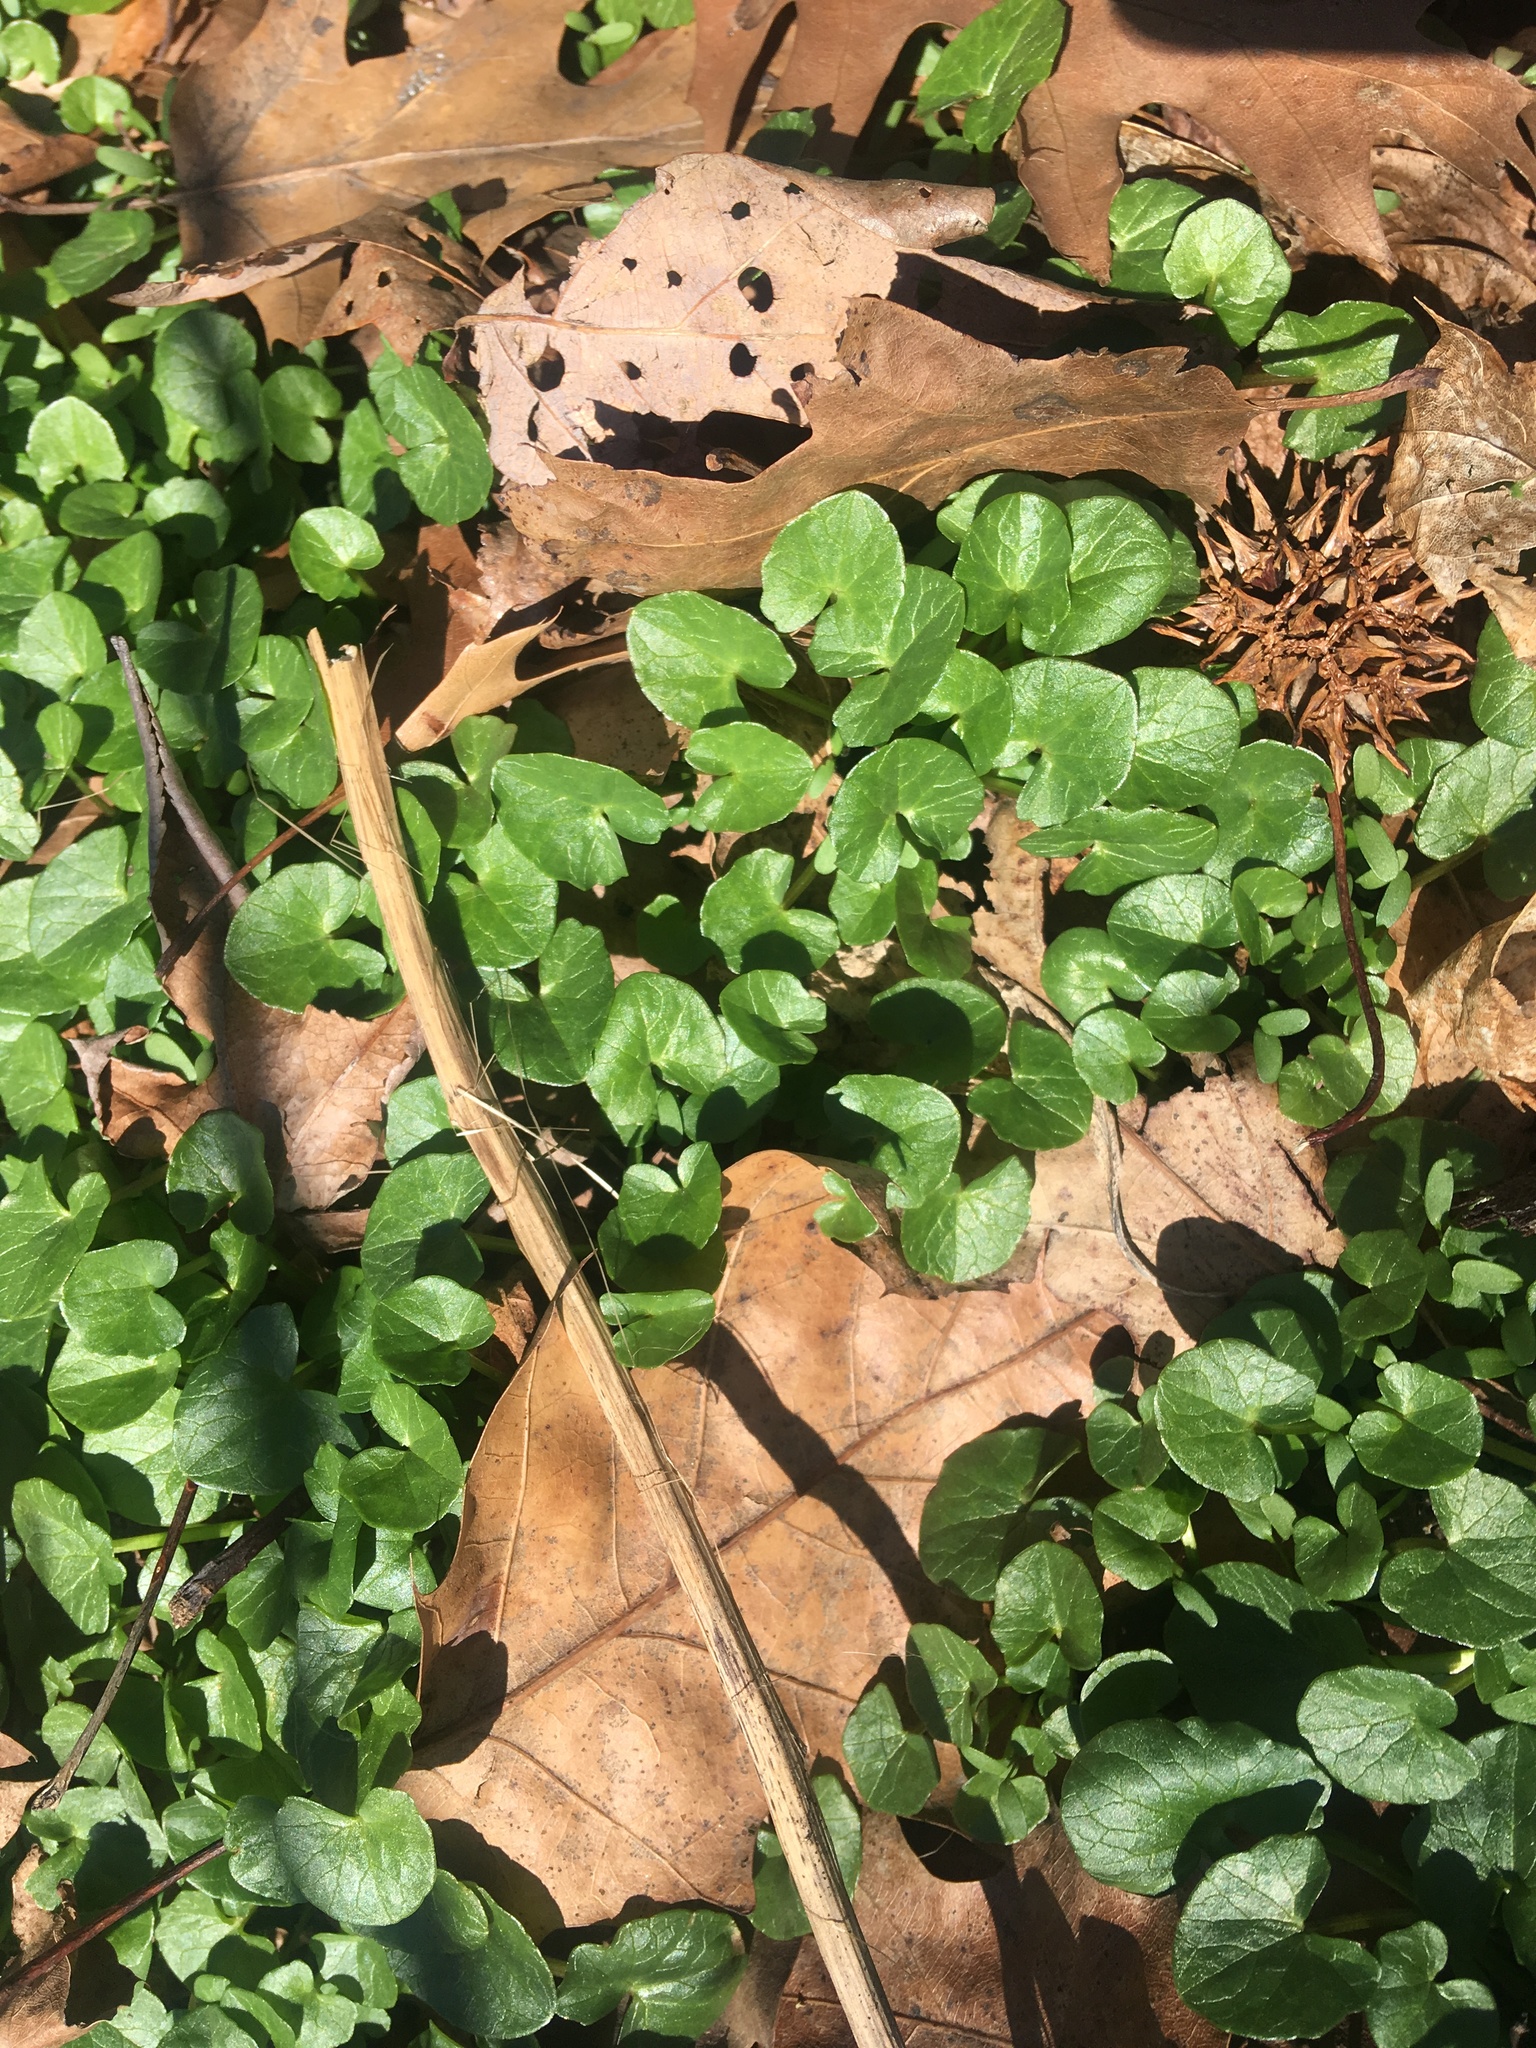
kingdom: Plantae
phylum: Tracheophyta
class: Magnoliopsida
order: Ranunculales
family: Ranunculaceae
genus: Ficaria
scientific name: Ficaria verna
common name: Lesser celandine
